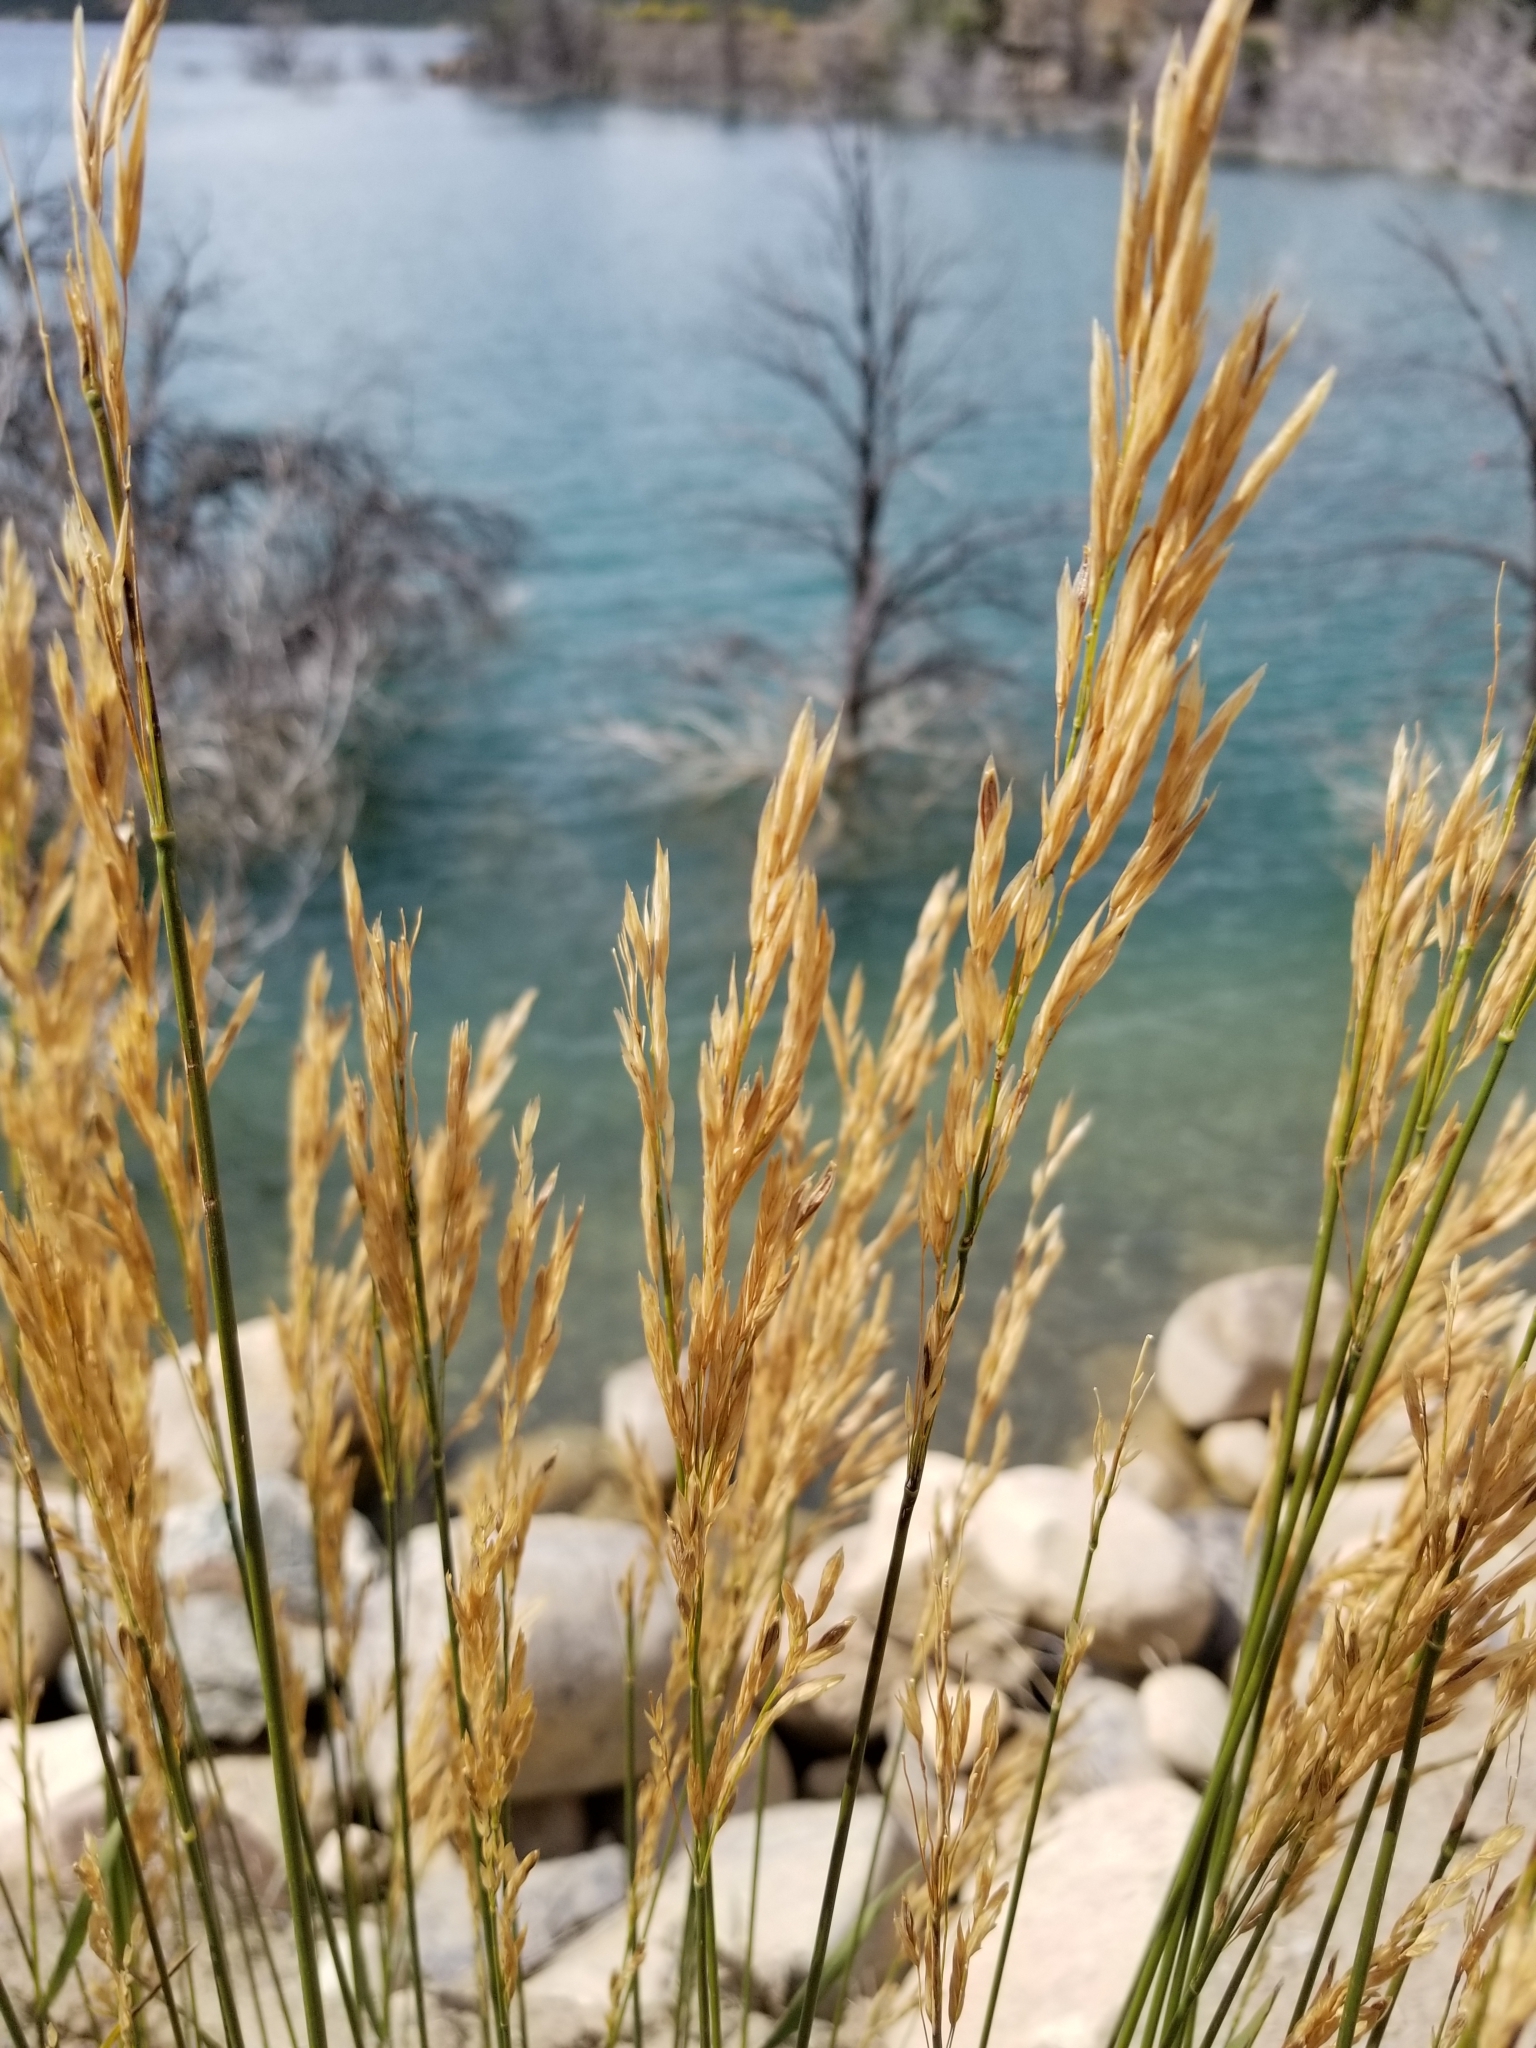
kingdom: Plantae
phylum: Tracheophyta
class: Liliopsida
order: Poales
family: Poaceae
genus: Bromus
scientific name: Bromus inermis
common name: Smooth brome
